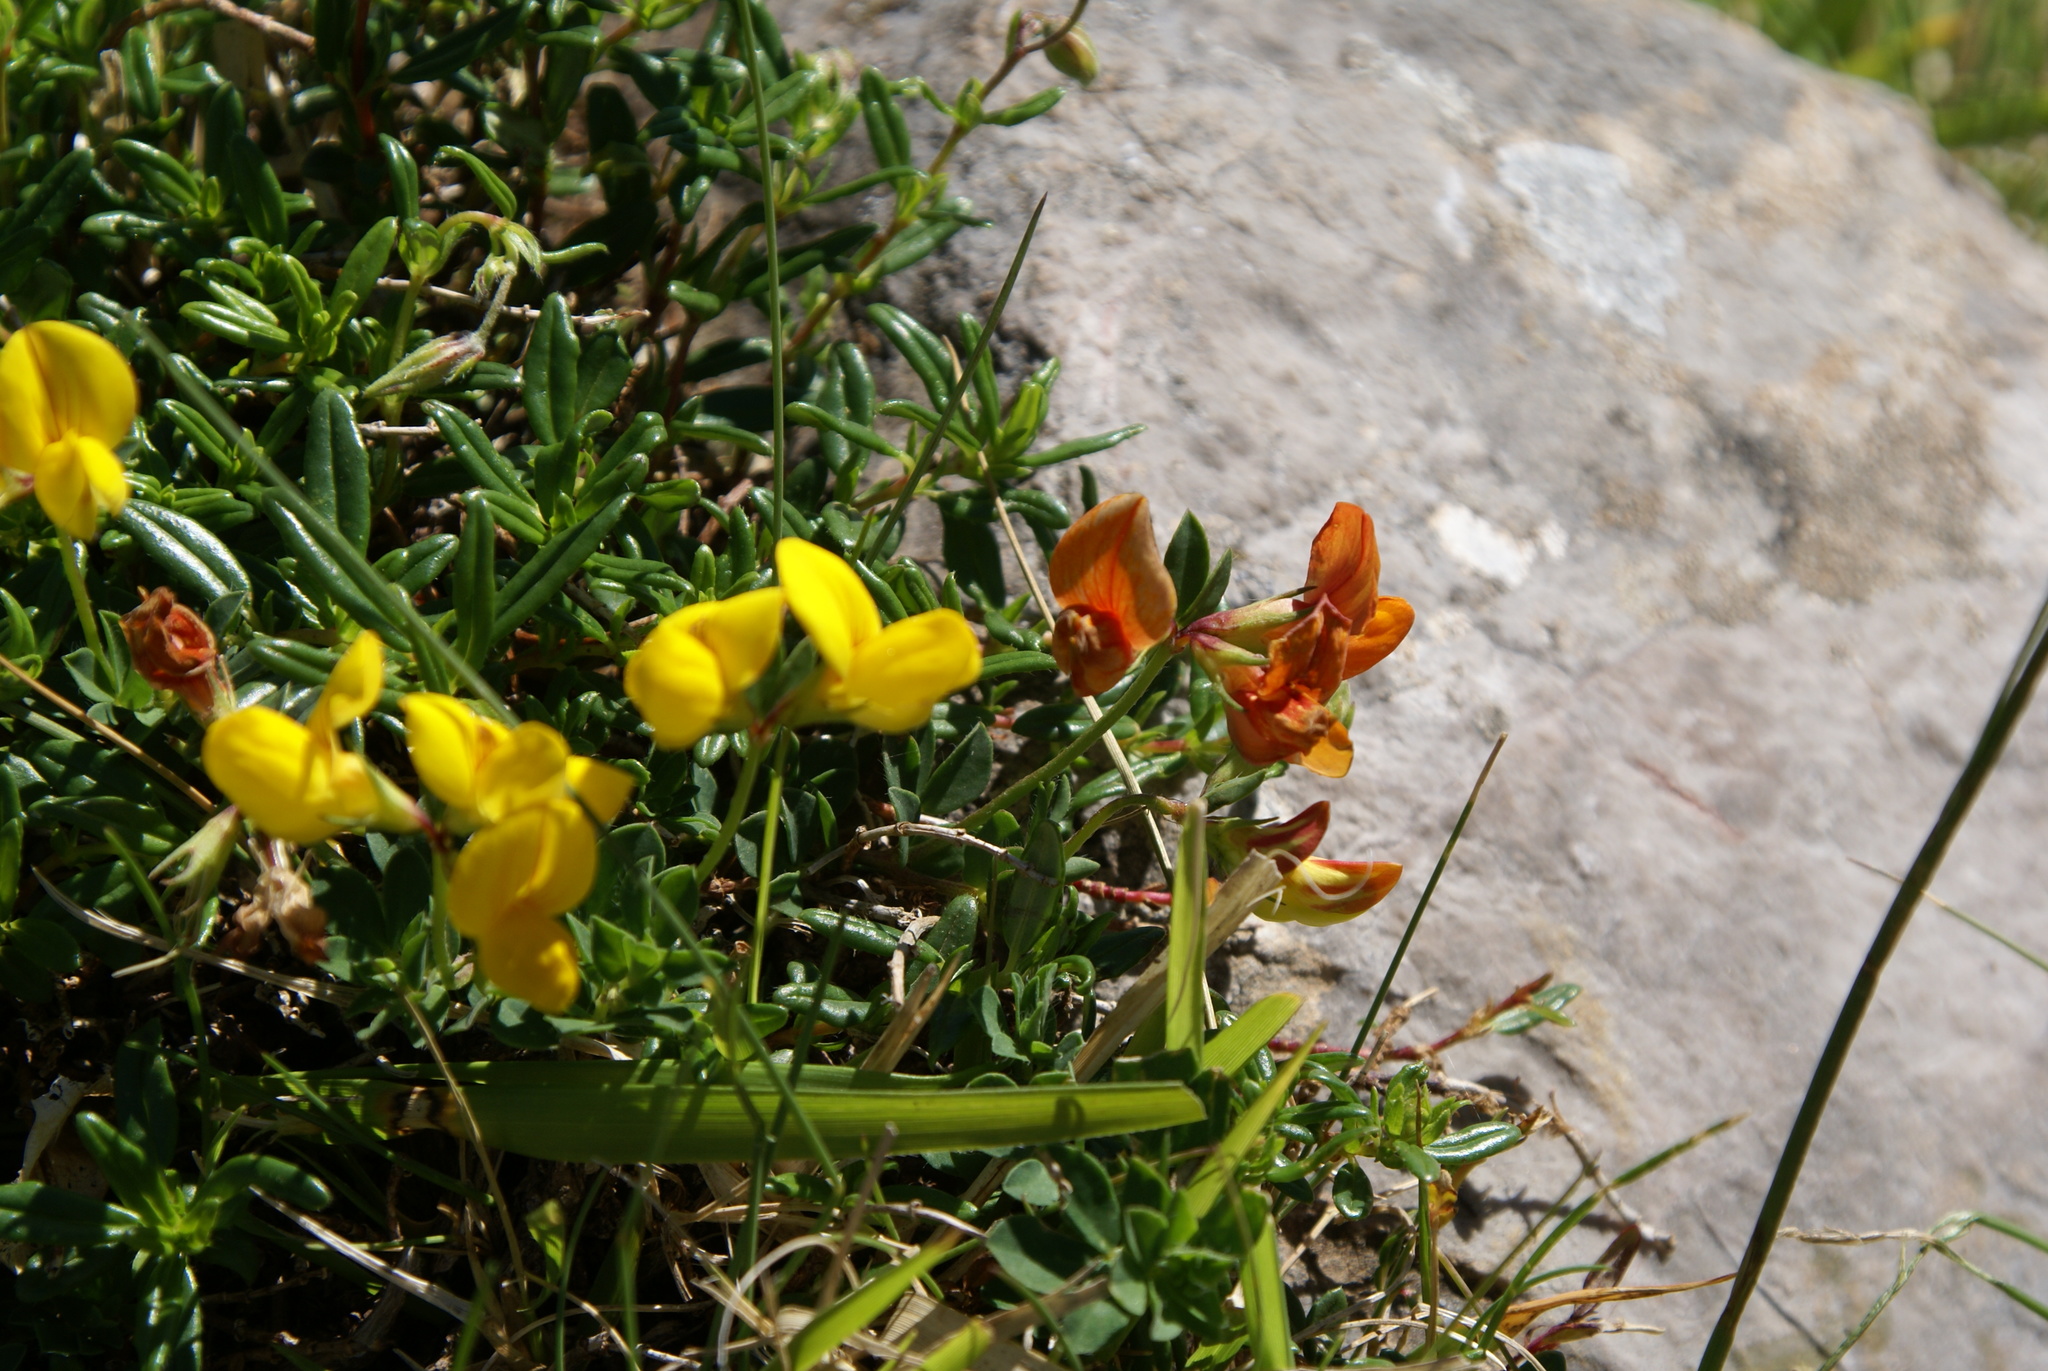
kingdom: Plantae
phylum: Tracheophyta
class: Magnoliopsida
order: Fabales
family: Fabaceae
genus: Lotus
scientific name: Lotus corniculatus
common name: Common bird's-foot-trefoil
